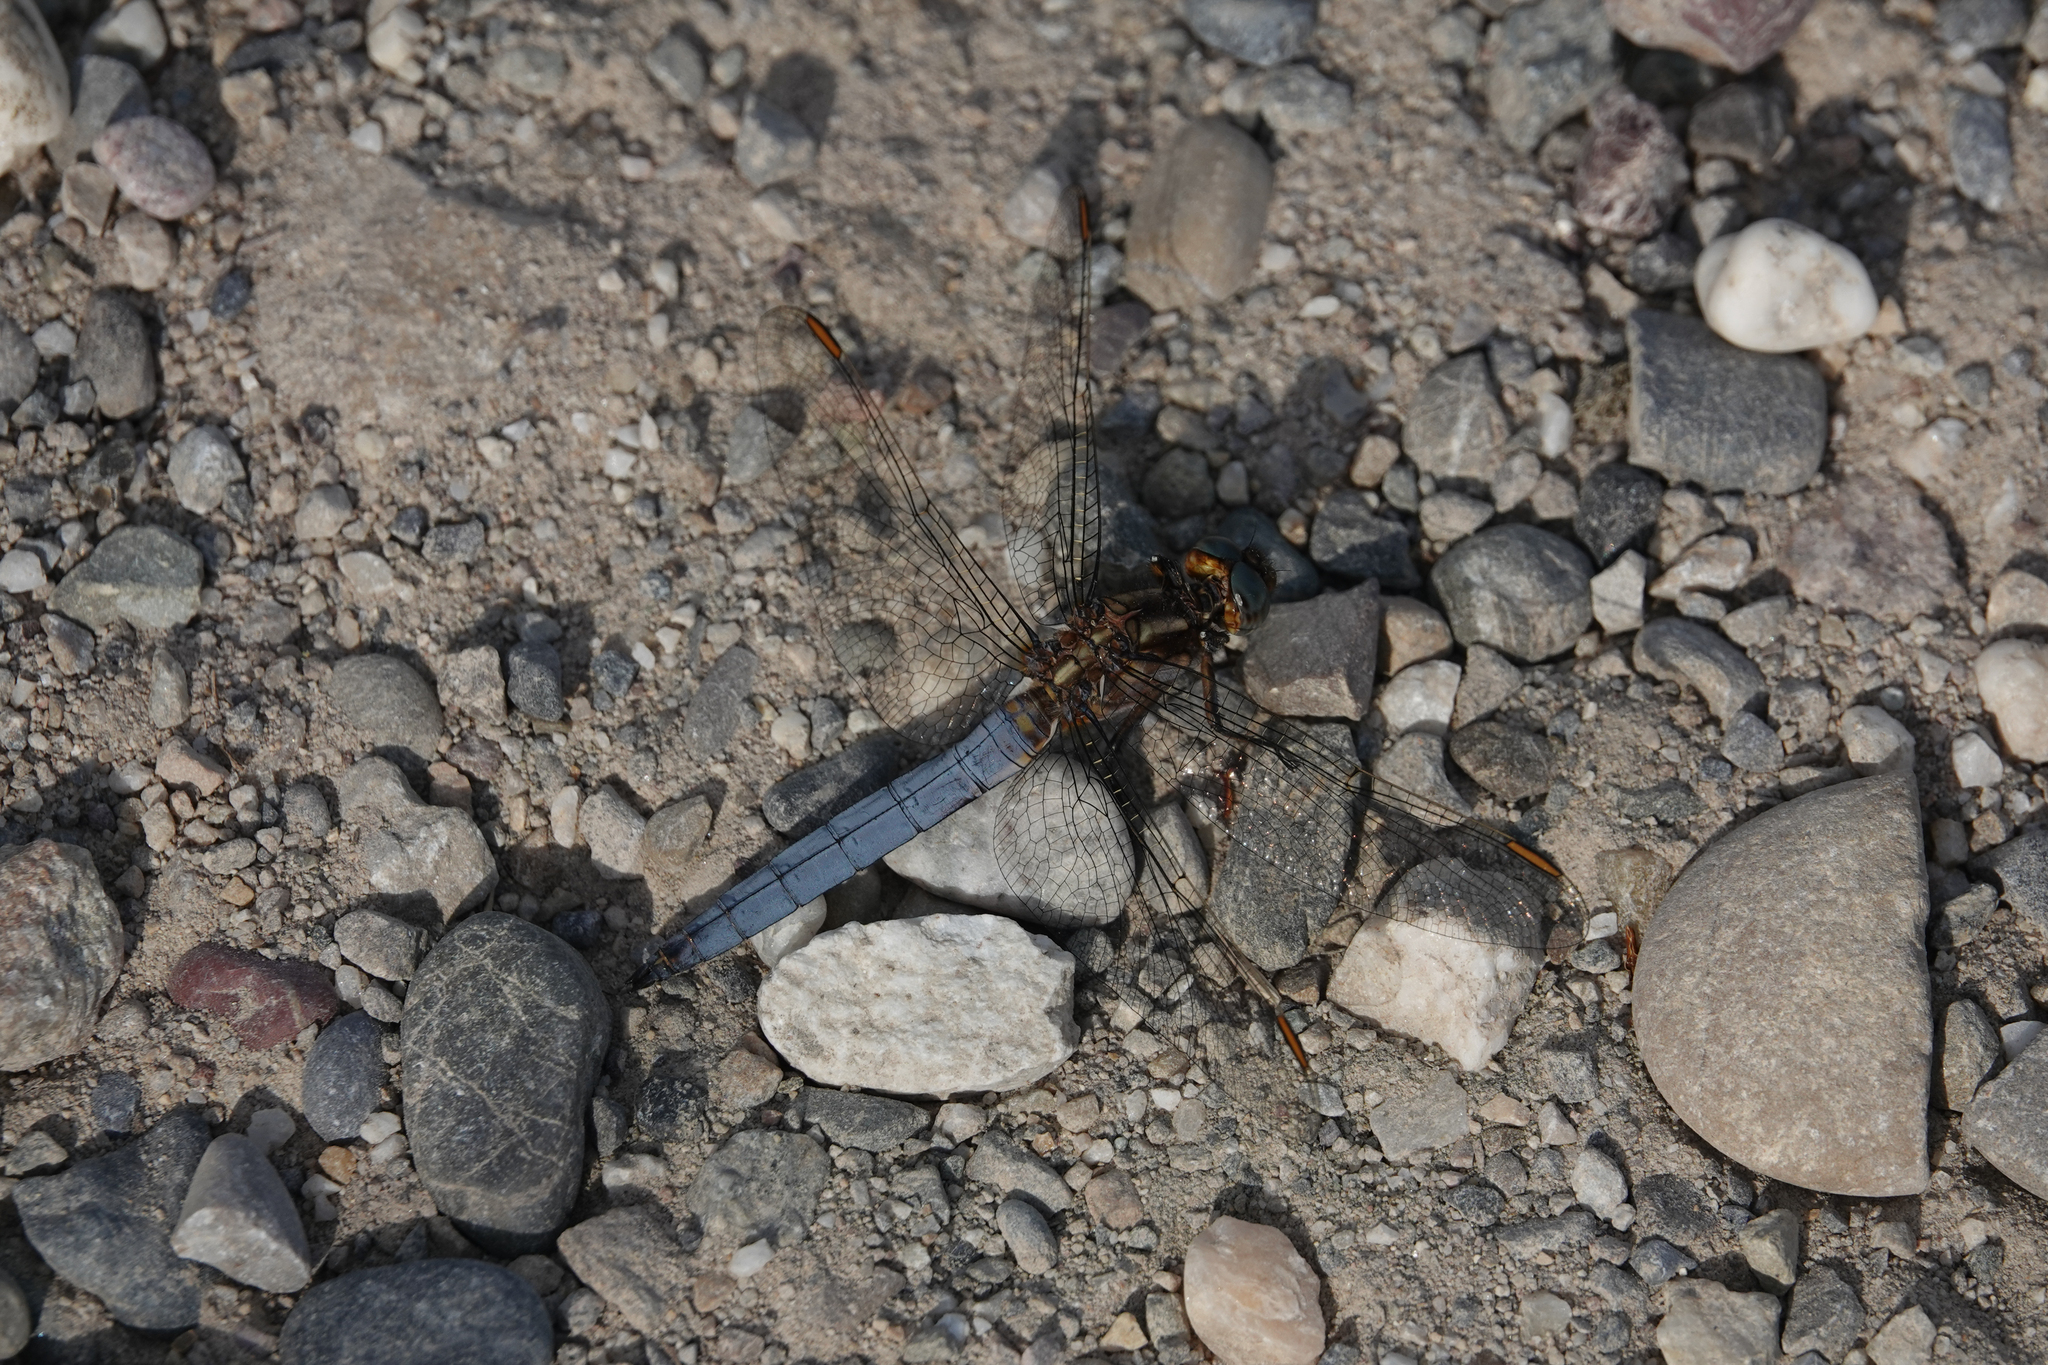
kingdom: Animalia
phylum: Arthropoda
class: Insecta
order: Odonata
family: Libellulidae
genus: Orthetrum
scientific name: Orthetrum coerulescens
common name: Keeled skimmer
